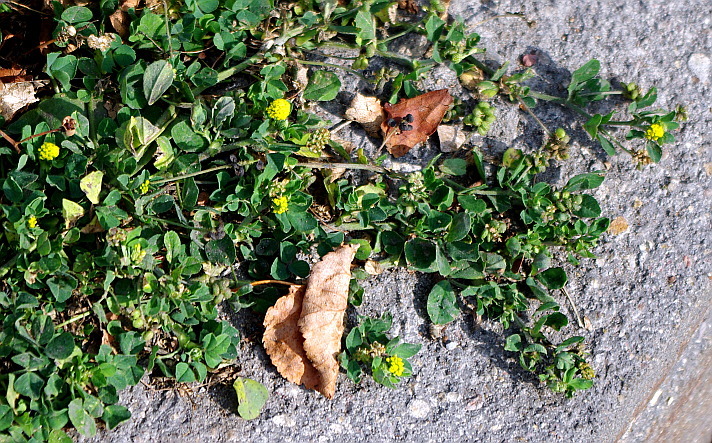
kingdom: Plantae
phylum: Tracheophyta
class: Magnoliopsida
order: Fabales
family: Fabaceae
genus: Medicago
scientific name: Medicago lupulina
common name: Black medick
